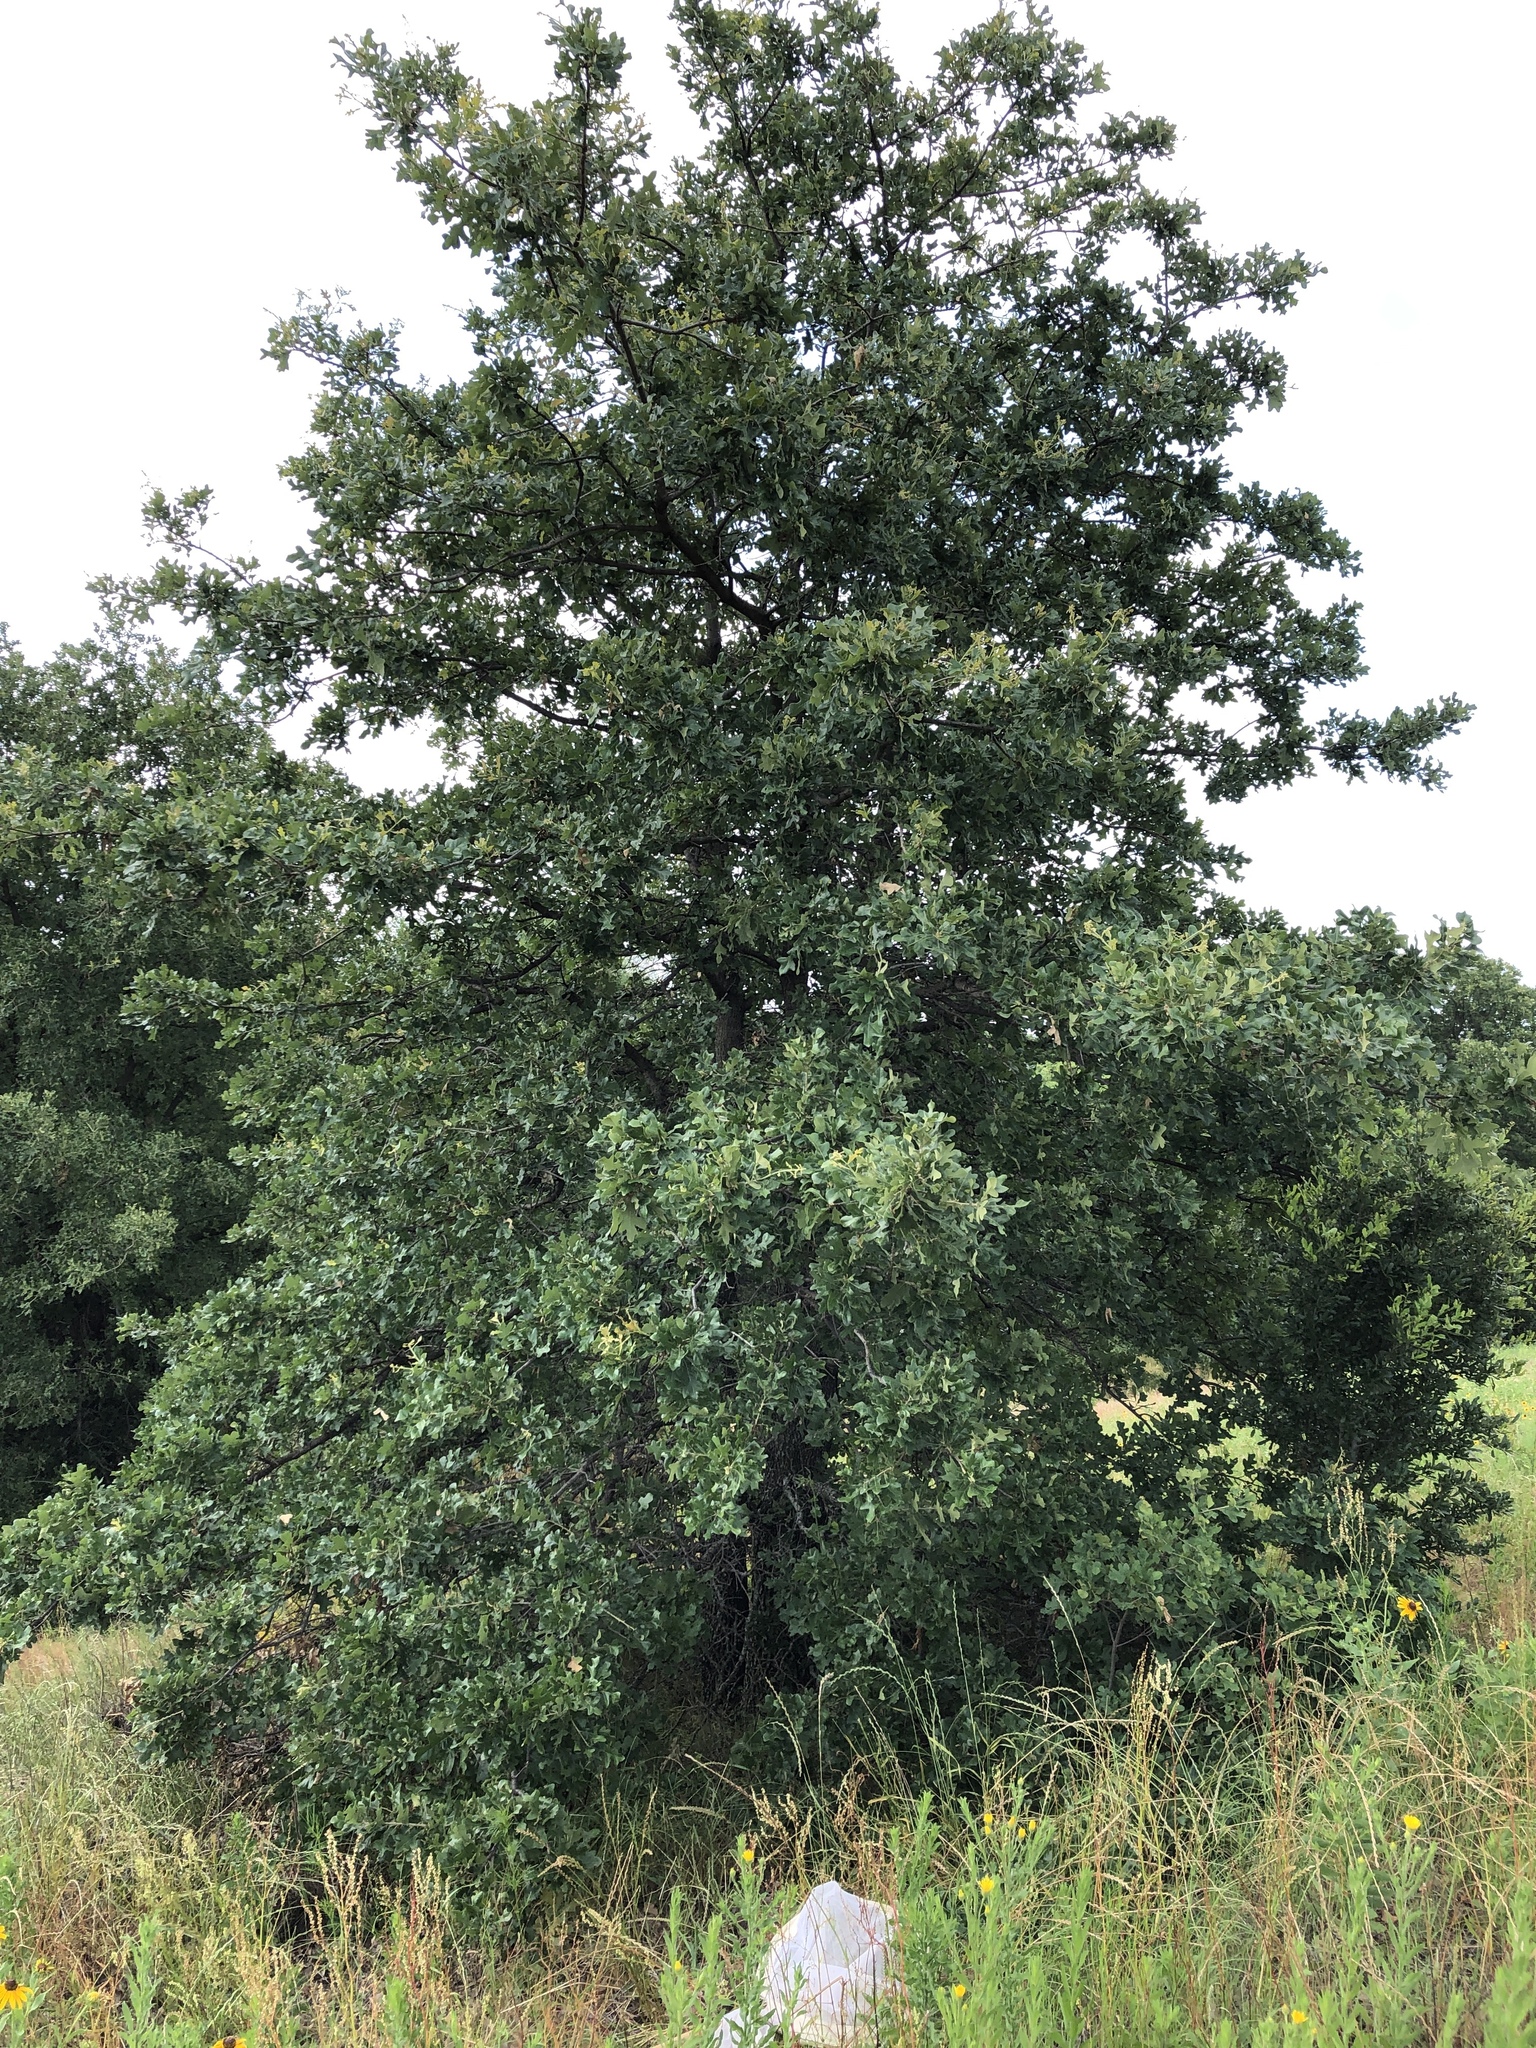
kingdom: Plantae
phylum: Tracheophyta
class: Magnoliopsida
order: Fagales
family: Fagaceae
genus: Quercus
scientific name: Quercus stellata
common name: Post oak
